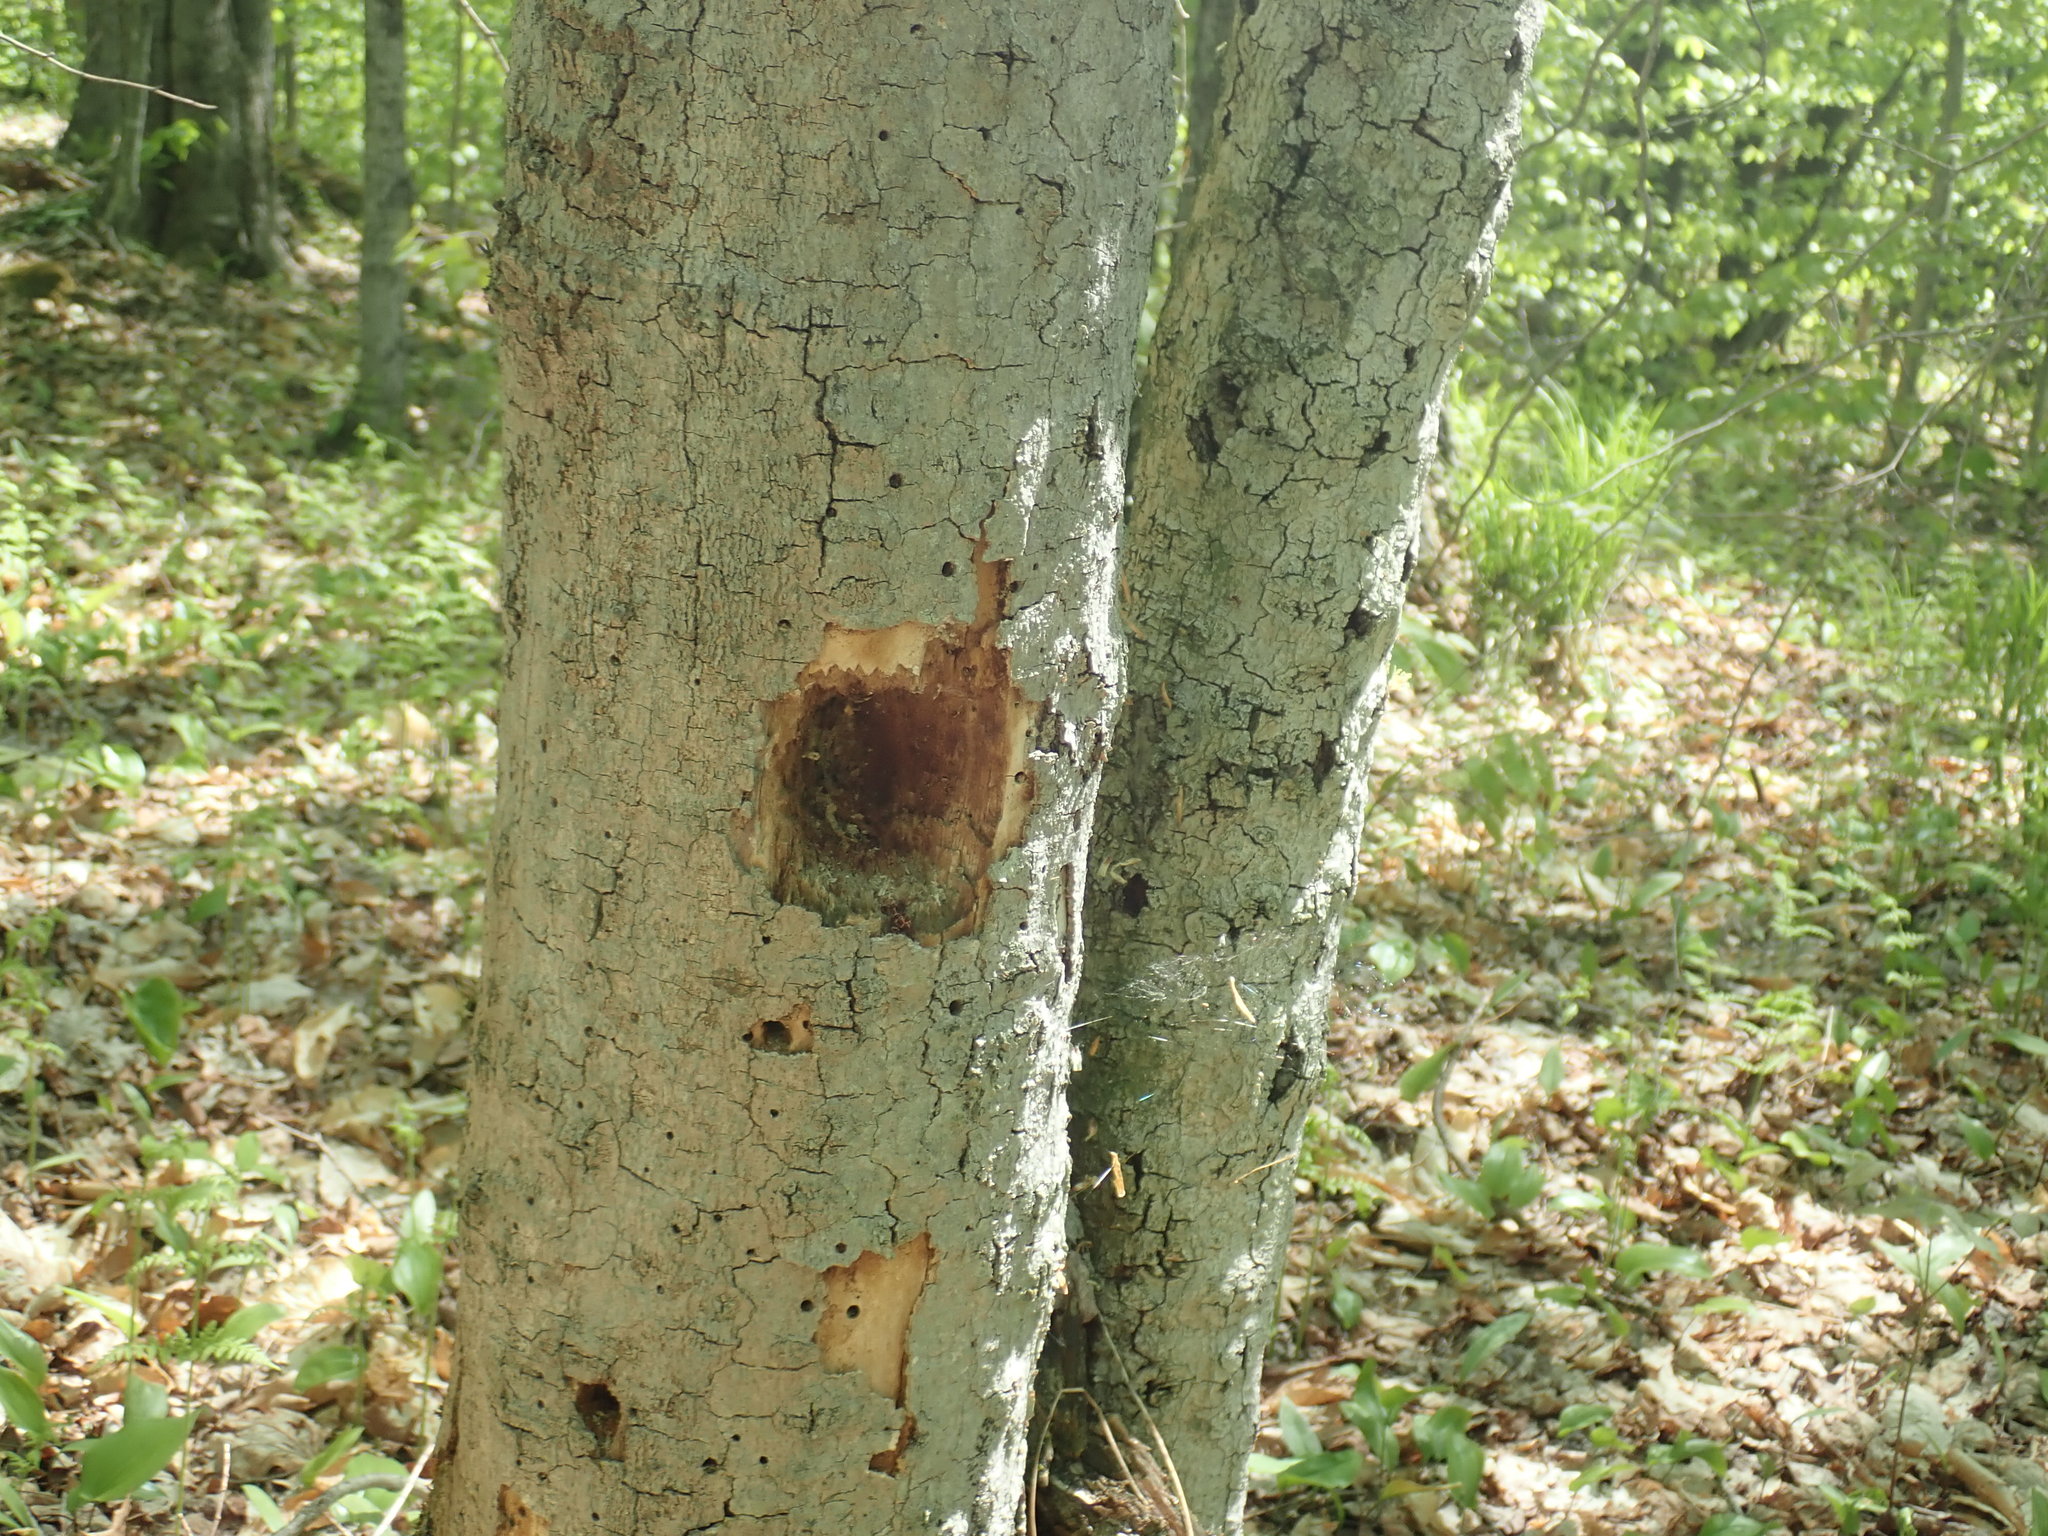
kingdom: Animalia
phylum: Chordata
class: Aves
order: Piciformes
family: Picidae
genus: Dryocopus
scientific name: Dryocopus pileatus
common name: Pileated woodpecker
